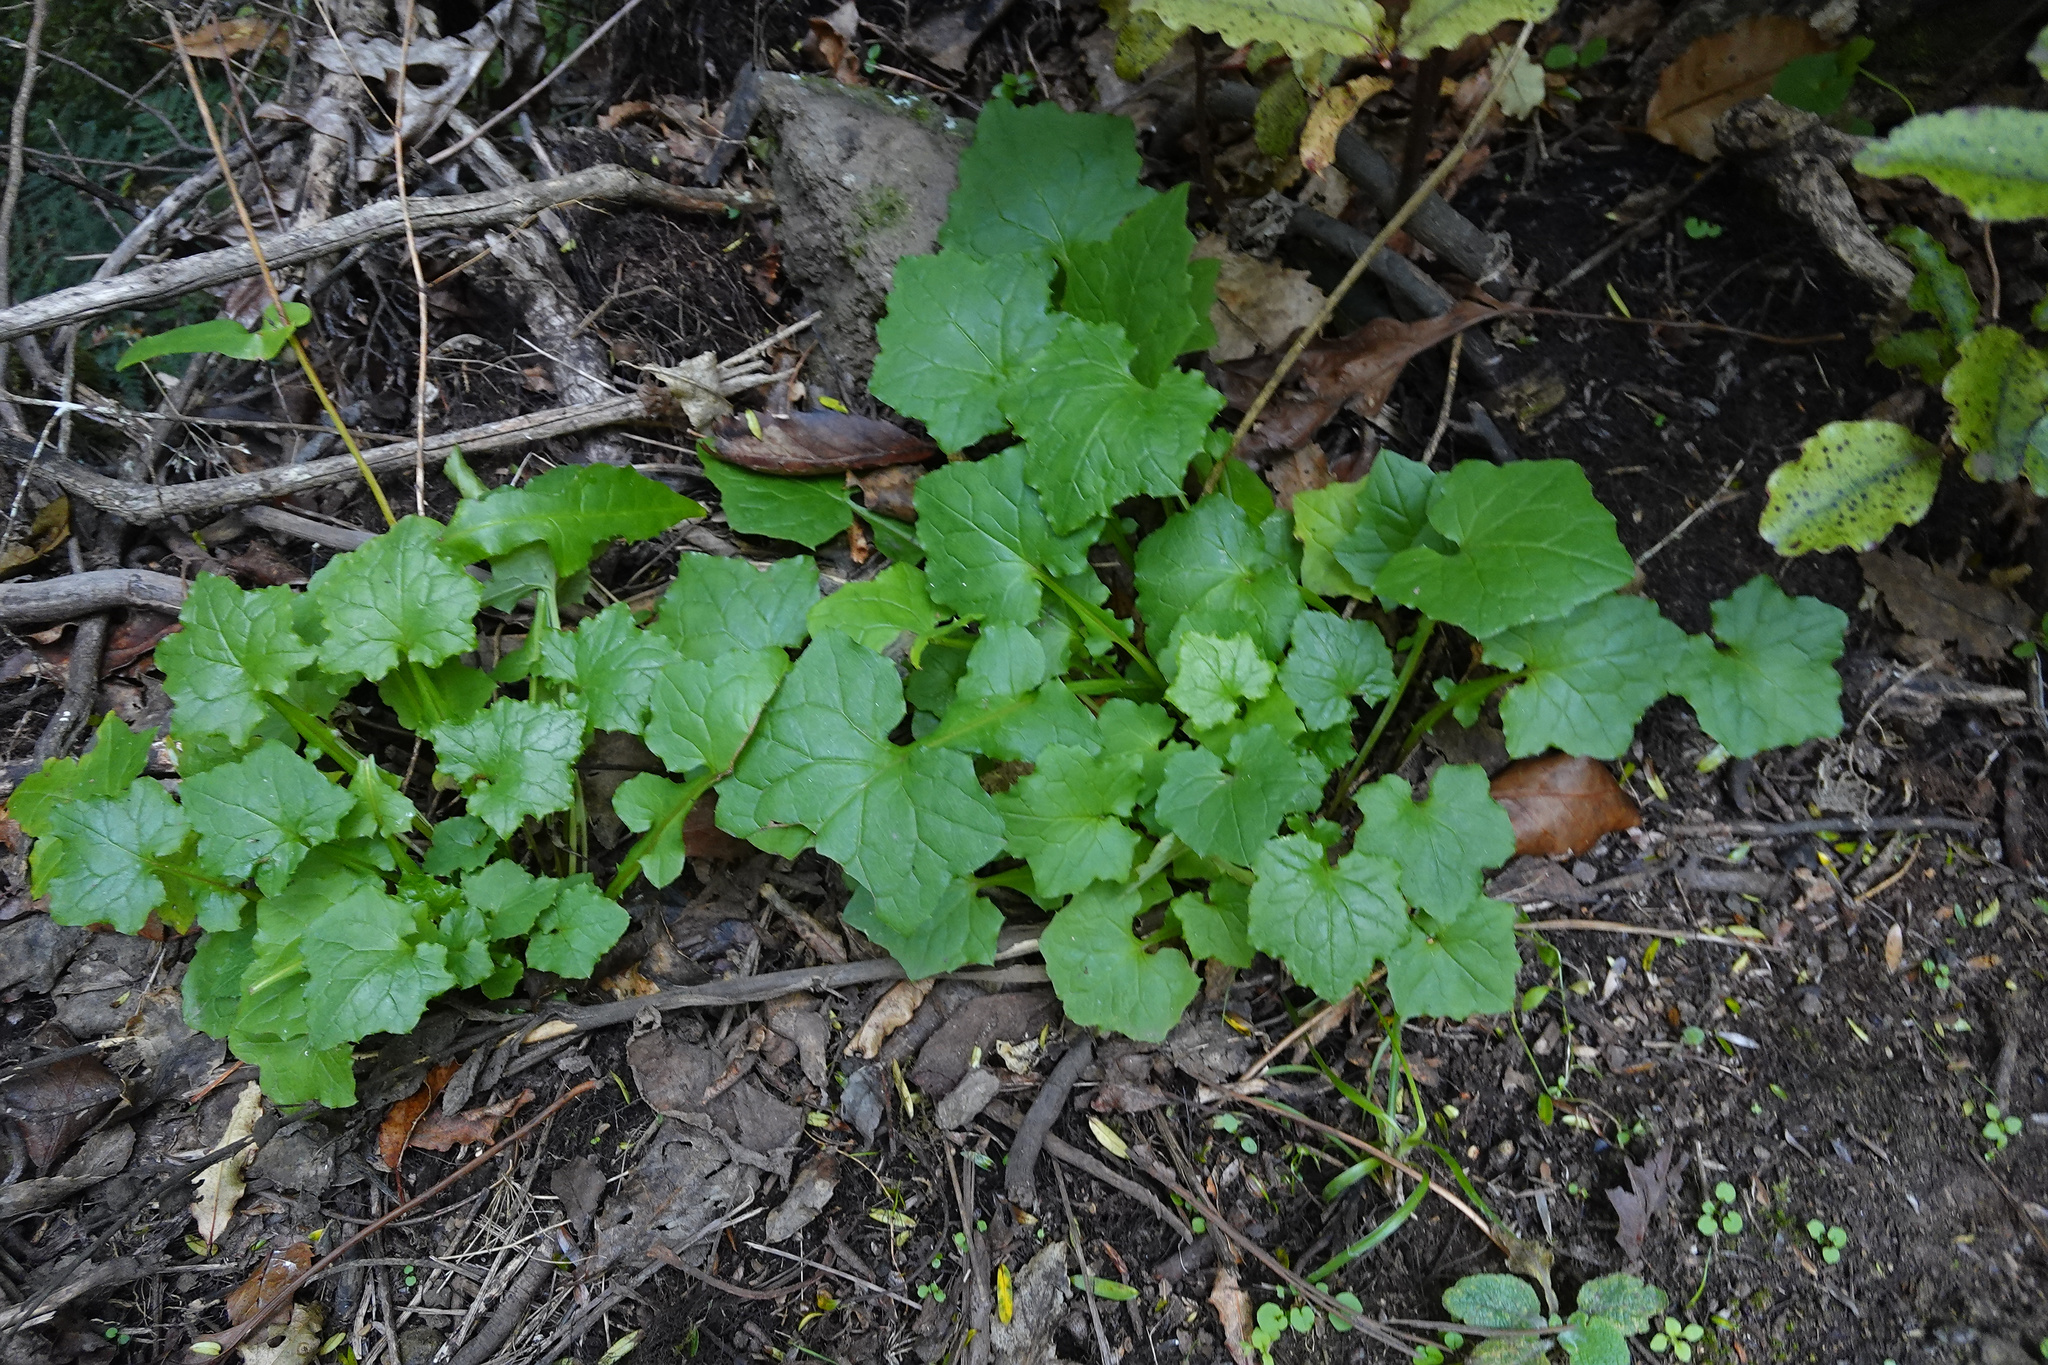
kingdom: Plantae
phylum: Tracheophyta
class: Magnoliopsida
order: Asterales
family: Asteraceae
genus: Mycelis
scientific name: Mycelis muralis
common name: Wall lettuce
